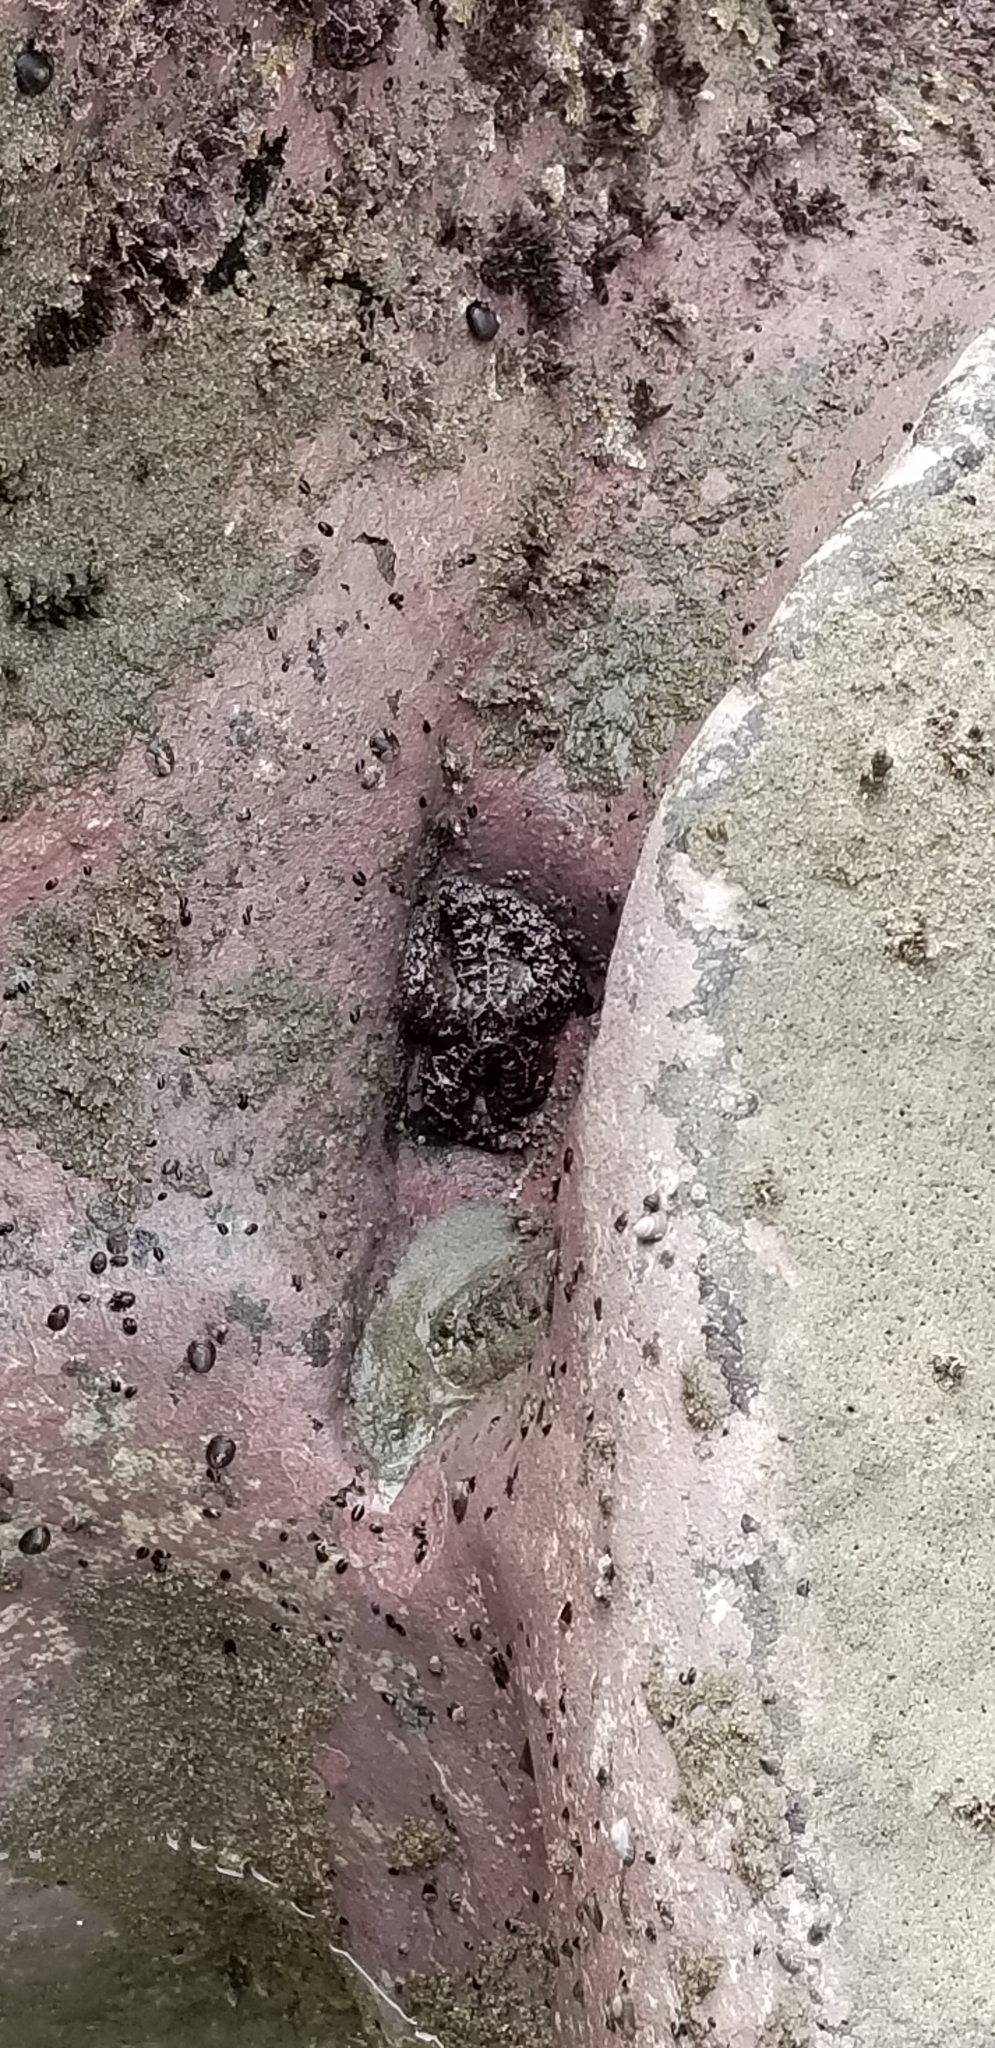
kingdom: Animalia
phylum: Echinodermata
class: Asteroidea
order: Forcipulatida
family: Asteriidae
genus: Pisaster
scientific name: Pisaster ochraceus
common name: Ochre stars
